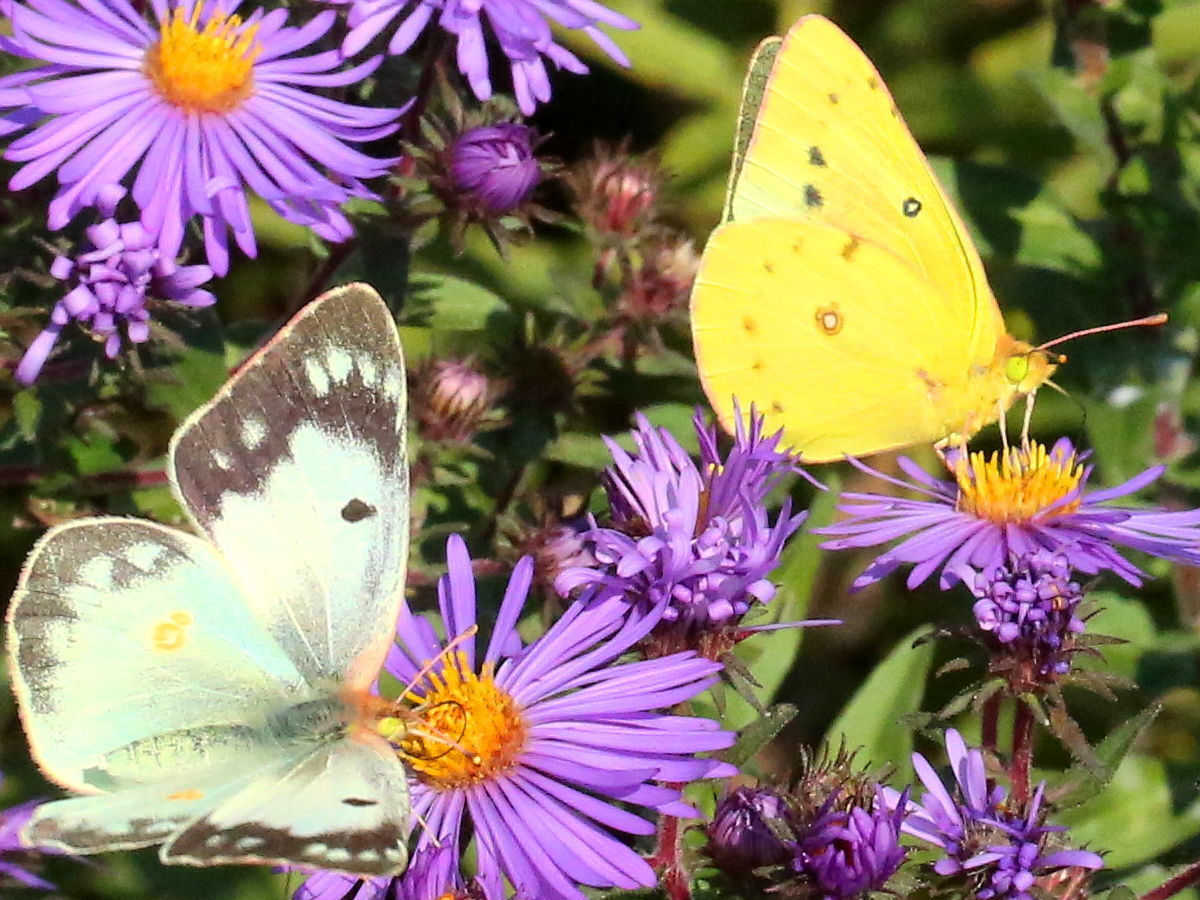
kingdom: Animalia
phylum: Arthropoda
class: Insecta
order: Lepidoptera
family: Pieridae
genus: Colias
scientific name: Colias eurytheme
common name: Alfalfa butterfly
